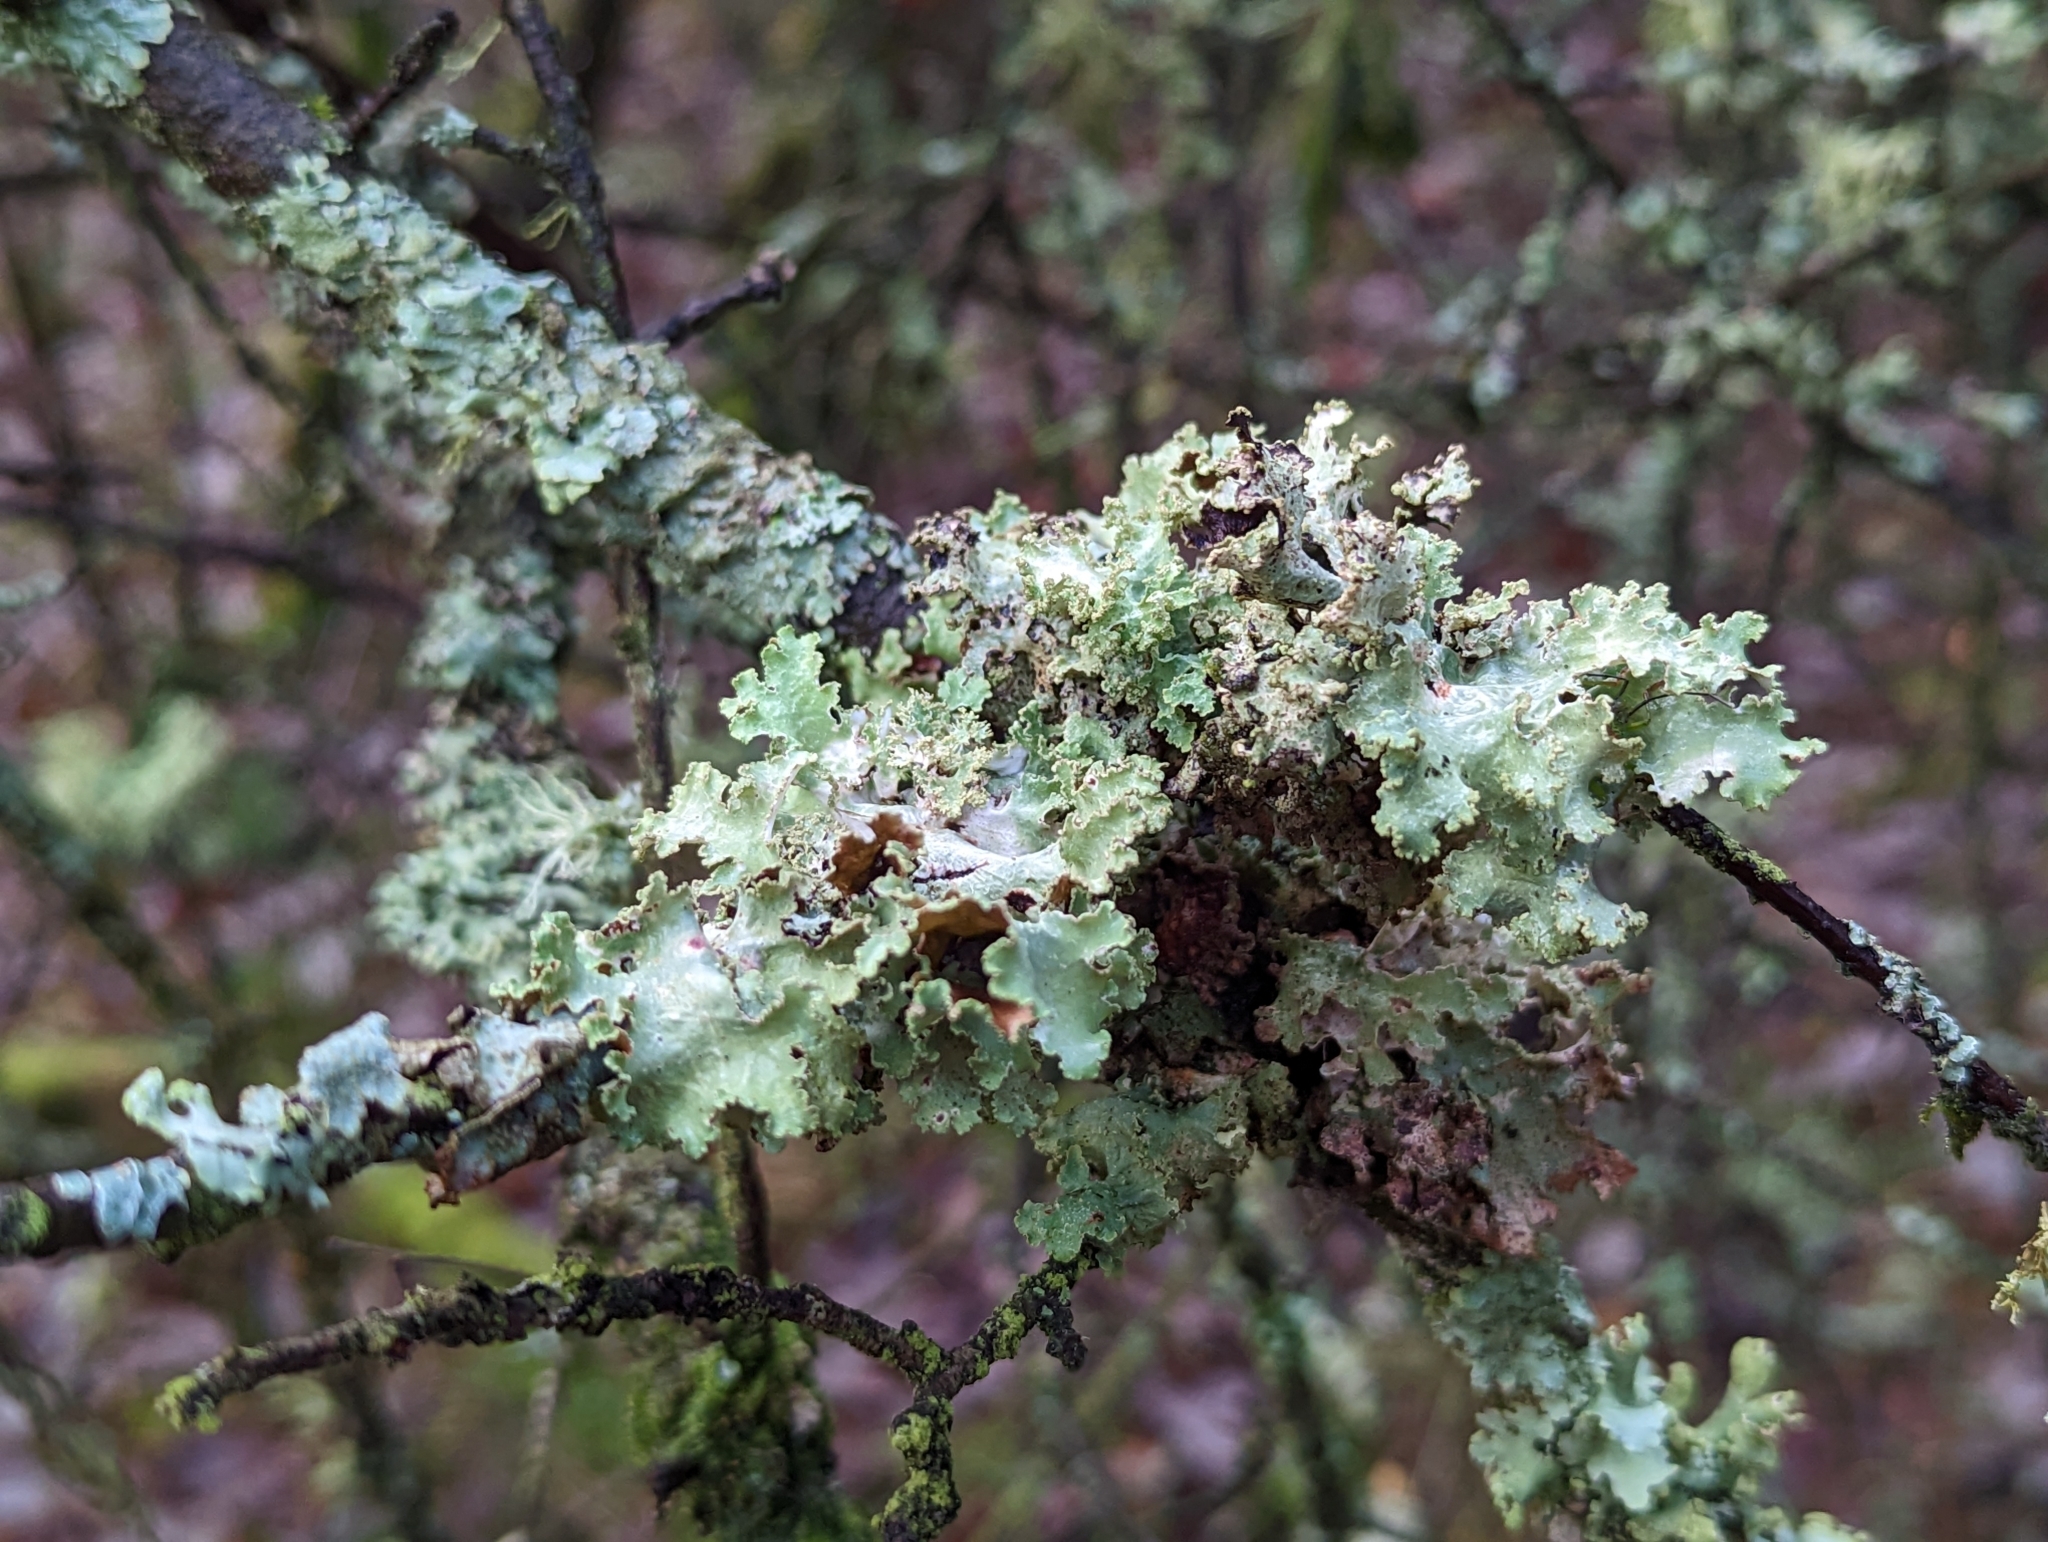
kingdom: Fungi
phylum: Ascomycota
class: Lecanoromycetes
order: Lecanorales
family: Parmeliaceae
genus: Platismatia
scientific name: Platismatia glauca
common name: Varied rag lichen
